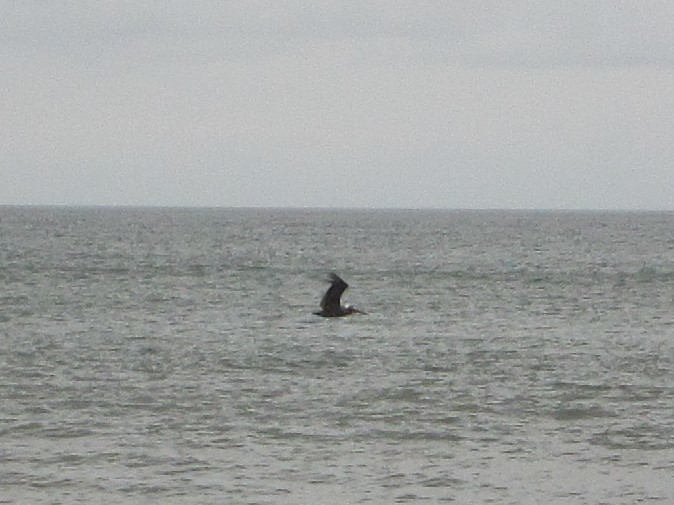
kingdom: Animalia
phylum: Chordata
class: Aves
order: Pelecaniformes
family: Pelecanidae
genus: Pelecanus
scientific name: Pelecanus occidentalis
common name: Brown pelican
